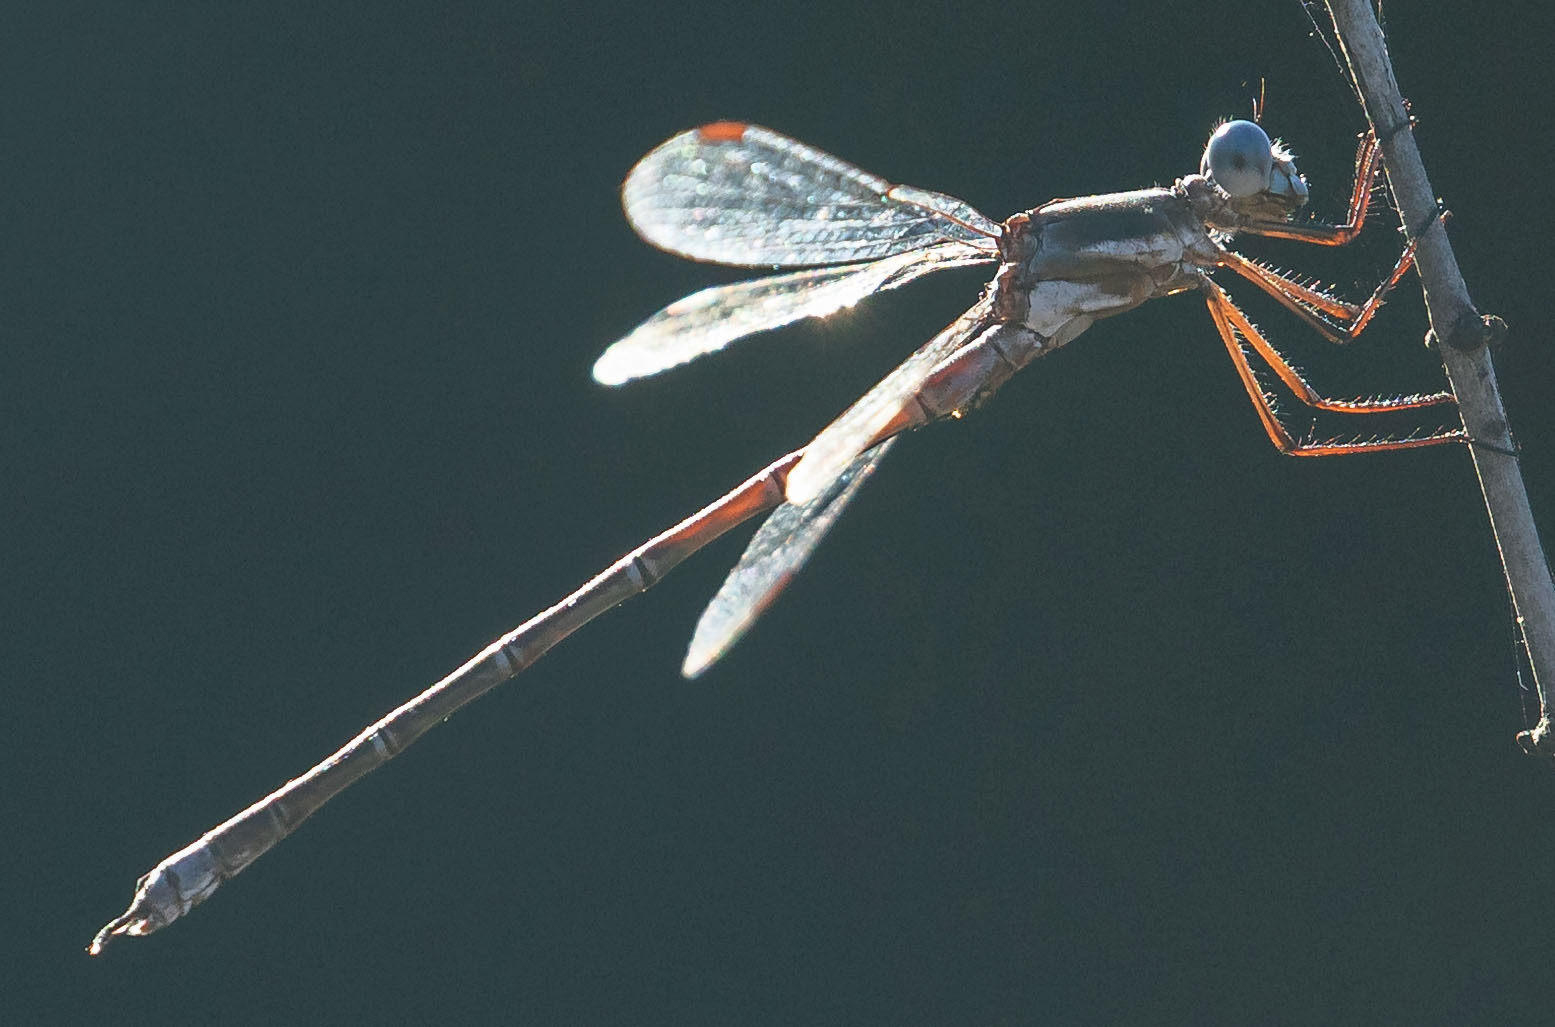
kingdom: Animalia
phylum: Arthropoda
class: Insecta
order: Odonata
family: Lestidae
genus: Archilestes
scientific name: Archilestes californicus
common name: California spreadwing
